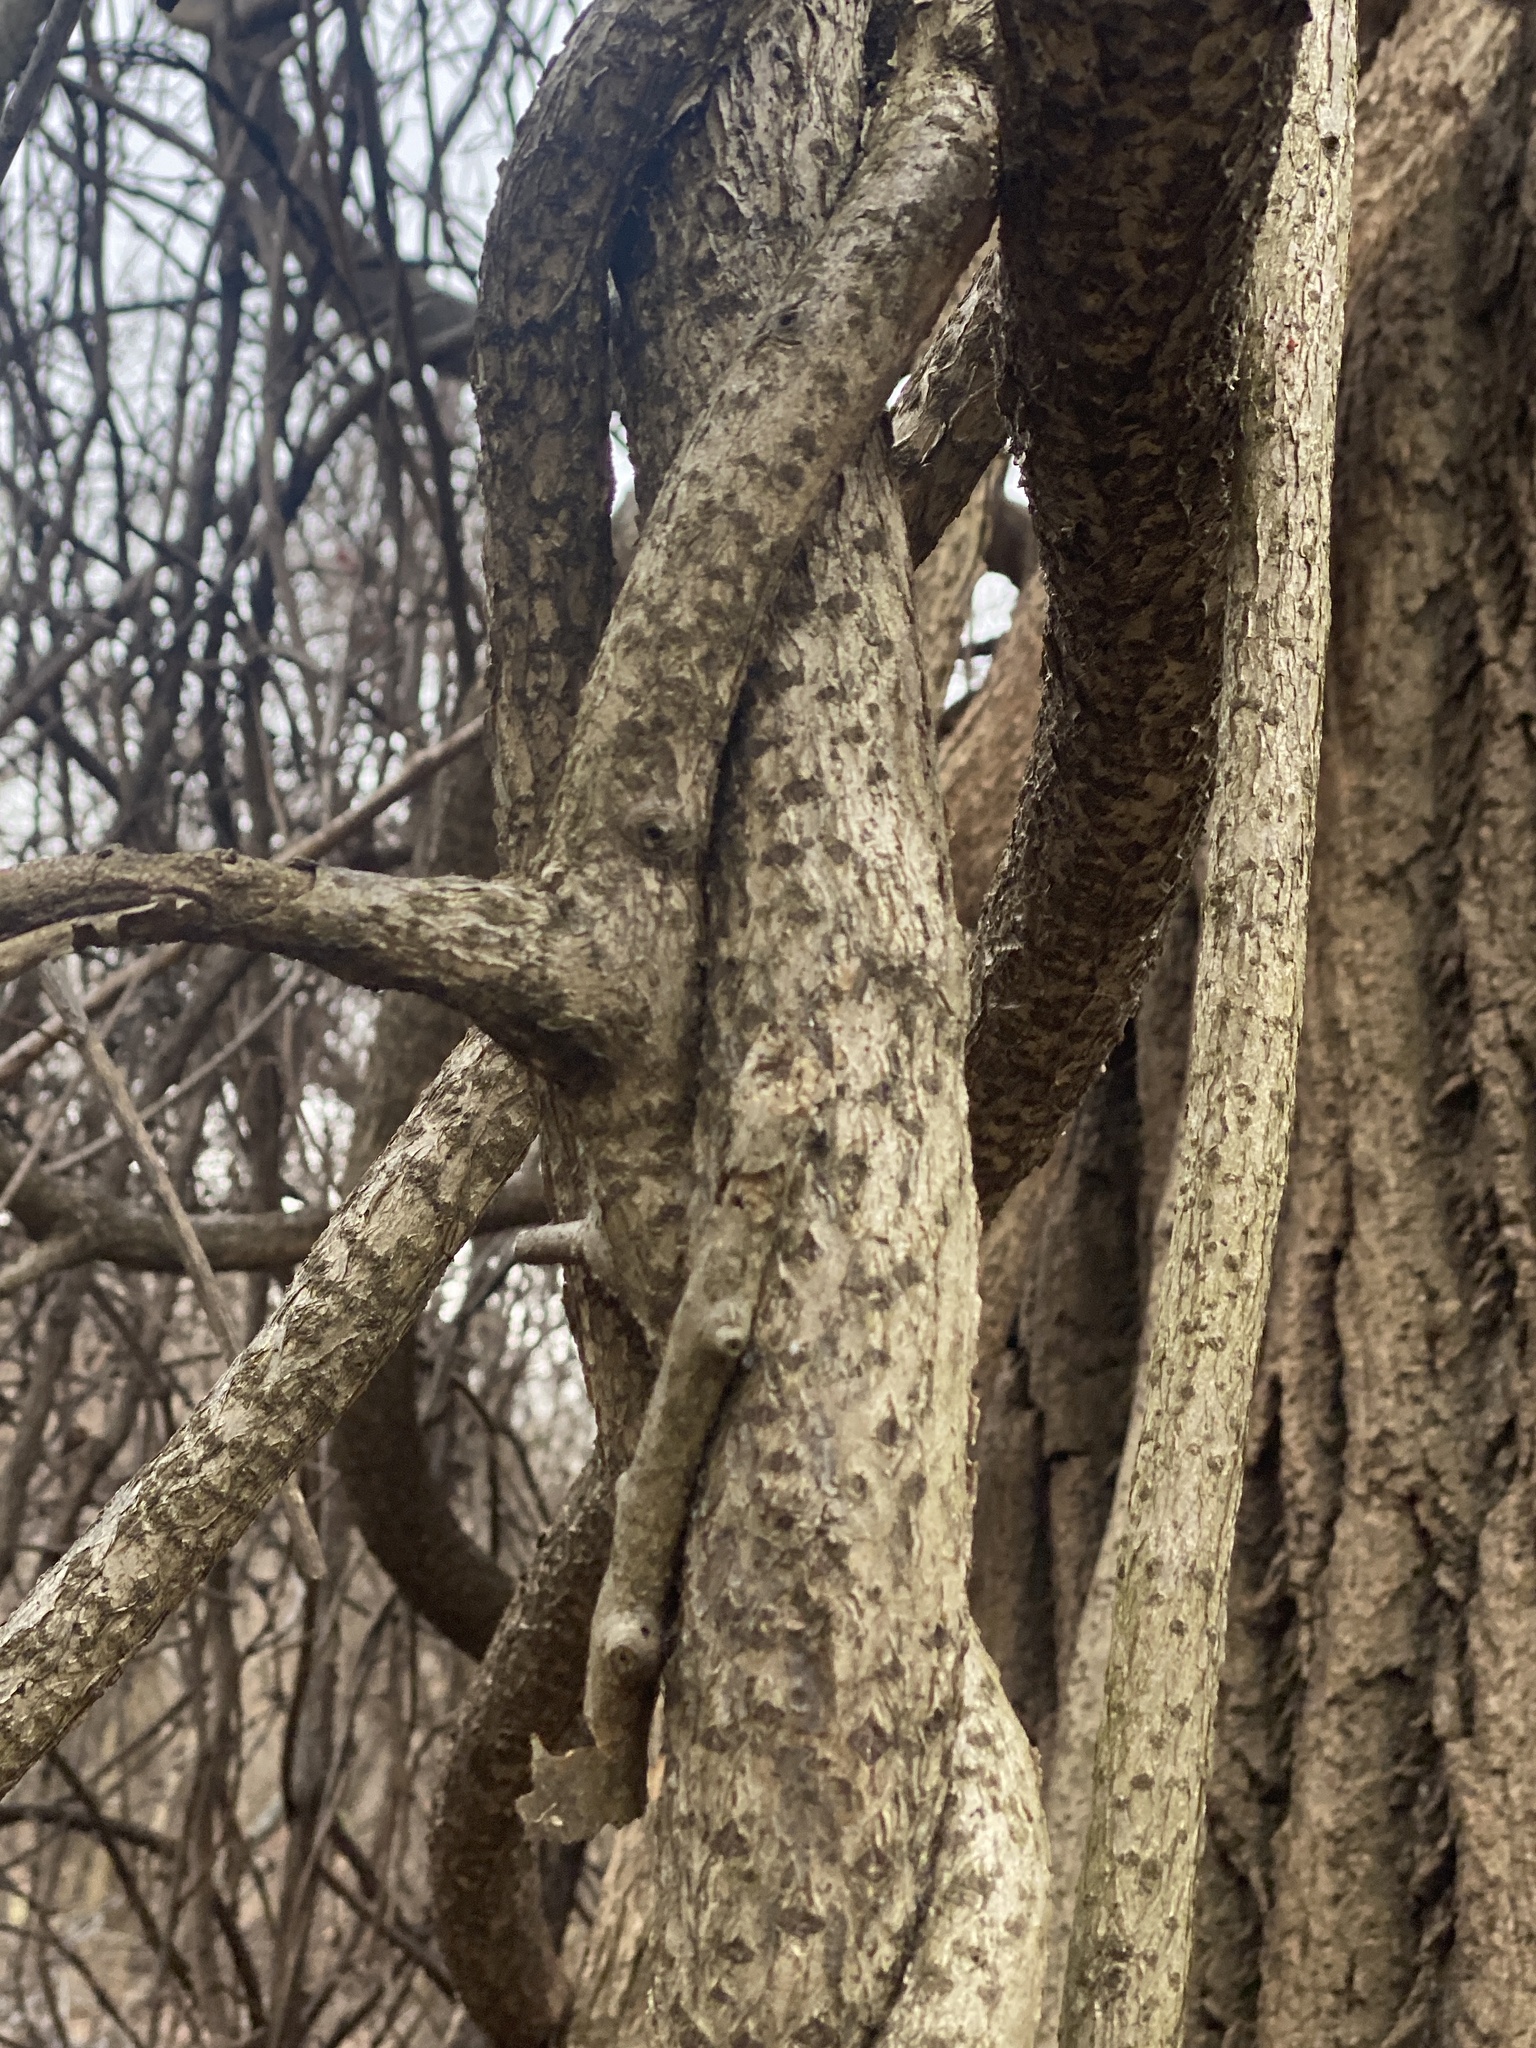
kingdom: Plantae
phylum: Tracheophyta
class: Magnoliopsida
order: Celastrales
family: Celastraceae
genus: Celastrus
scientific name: Celastrus orbiculatus
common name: Oriental bittersweet
